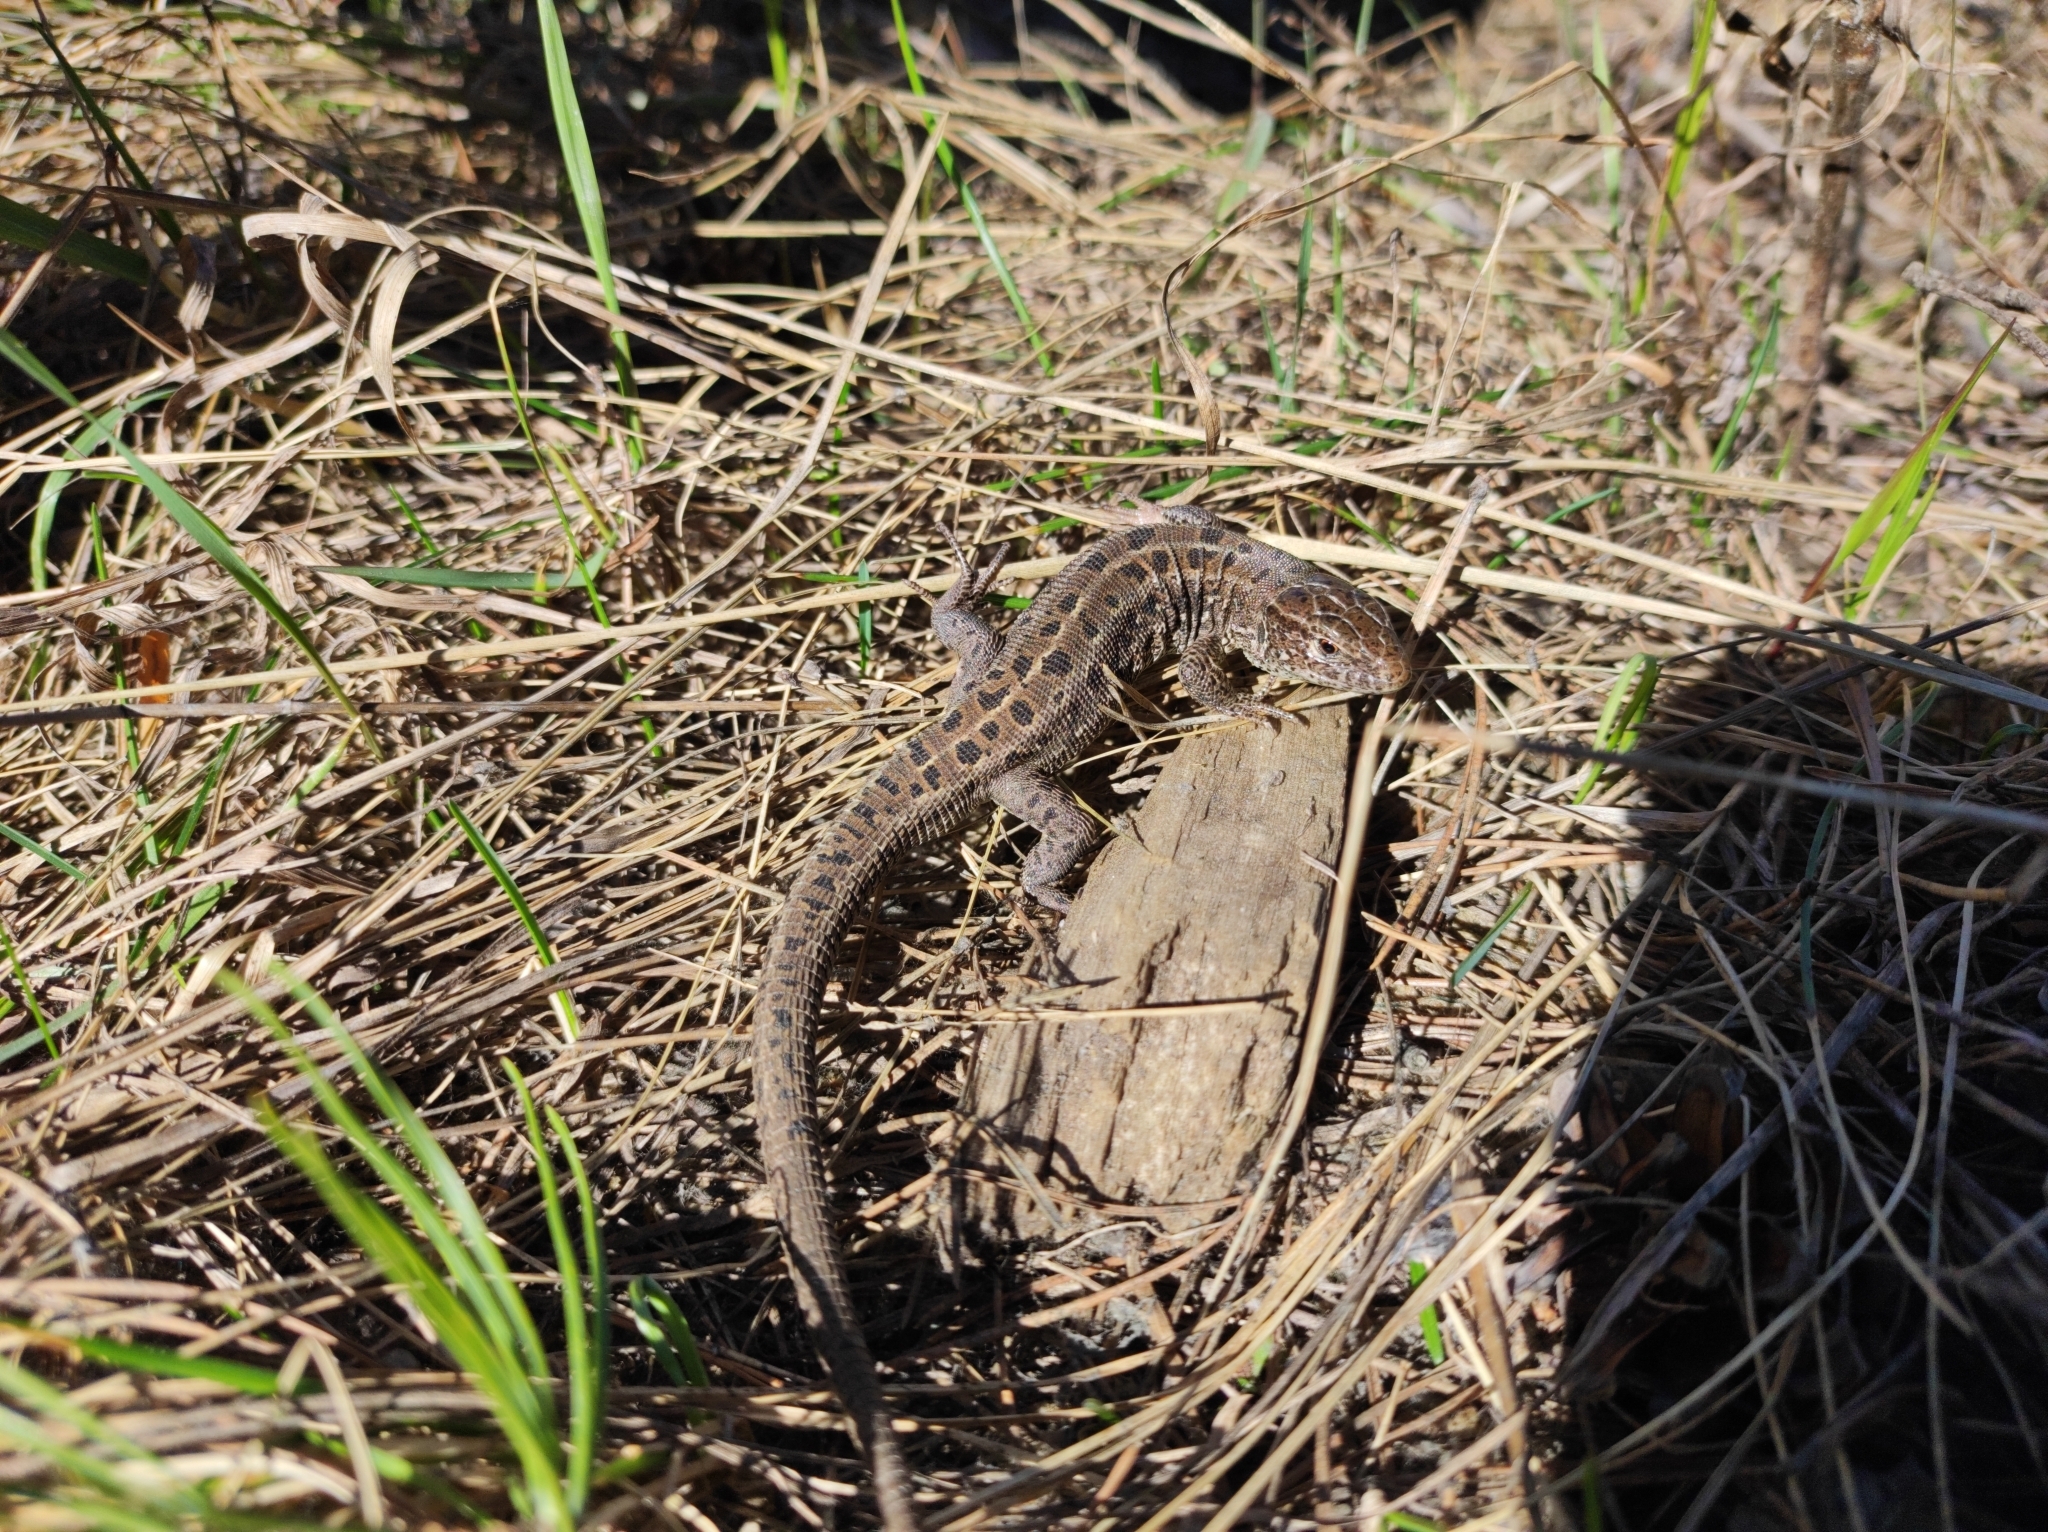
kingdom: Animalia
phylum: Chordata
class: Squamata
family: Lacertidae
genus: Lacerta
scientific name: Lacerta agilis
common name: Sand lizard
